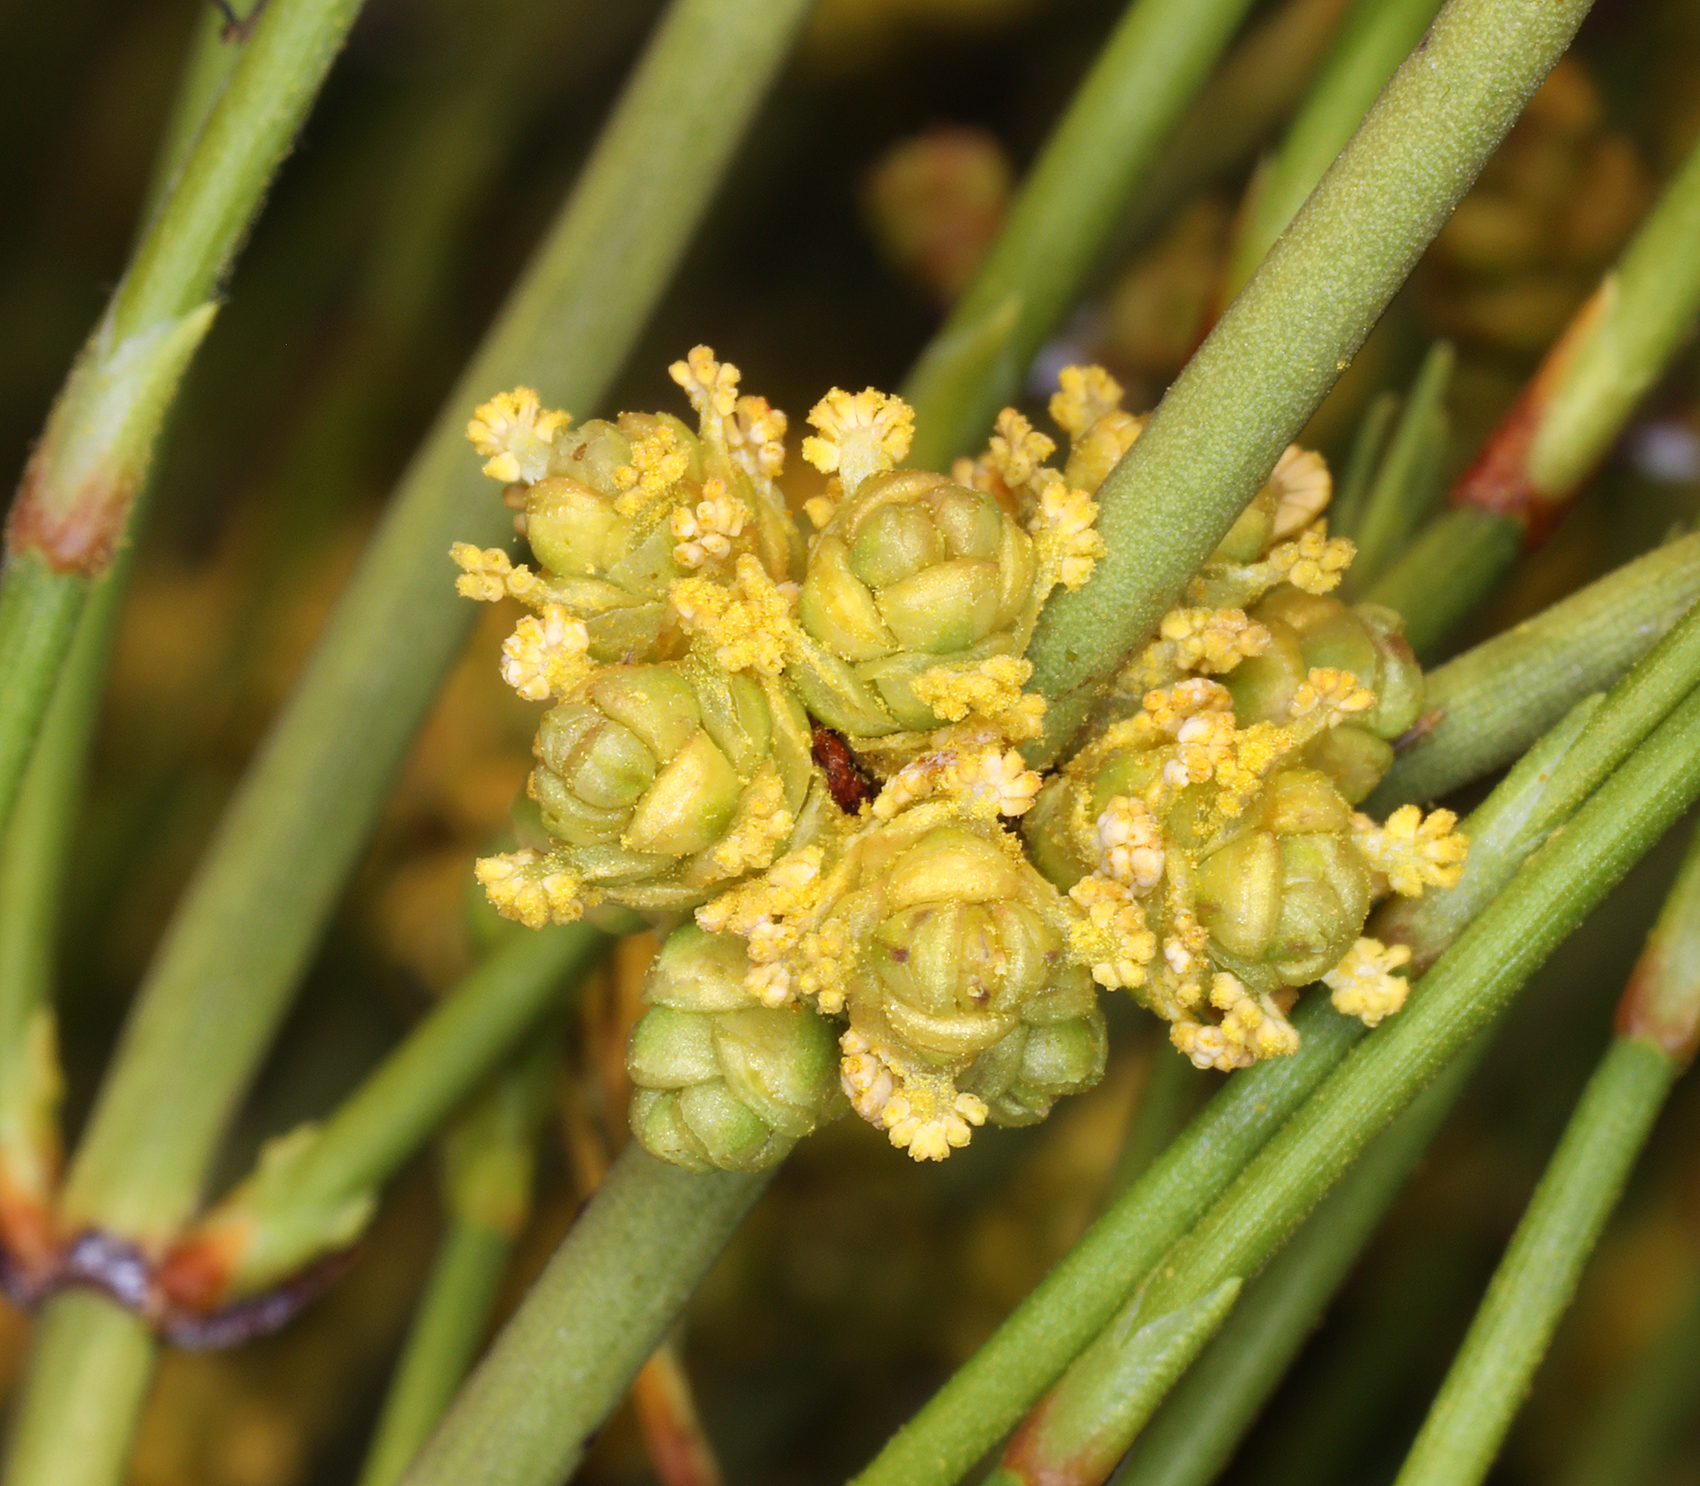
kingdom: Plantae
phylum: Tracheophyta
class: Gnetopsida
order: Ephedrales
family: Ephedraceae
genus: Ephedra
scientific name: Ephedra viridis
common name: Green ephedra
